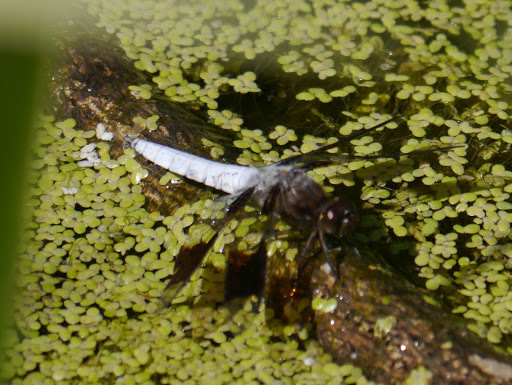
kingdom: Animalia
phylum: Arthropoda
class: Insecta
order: Odonata
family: Libellulidae
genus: Plathemis
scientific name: Plathemis lydia
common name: Common whitetail
